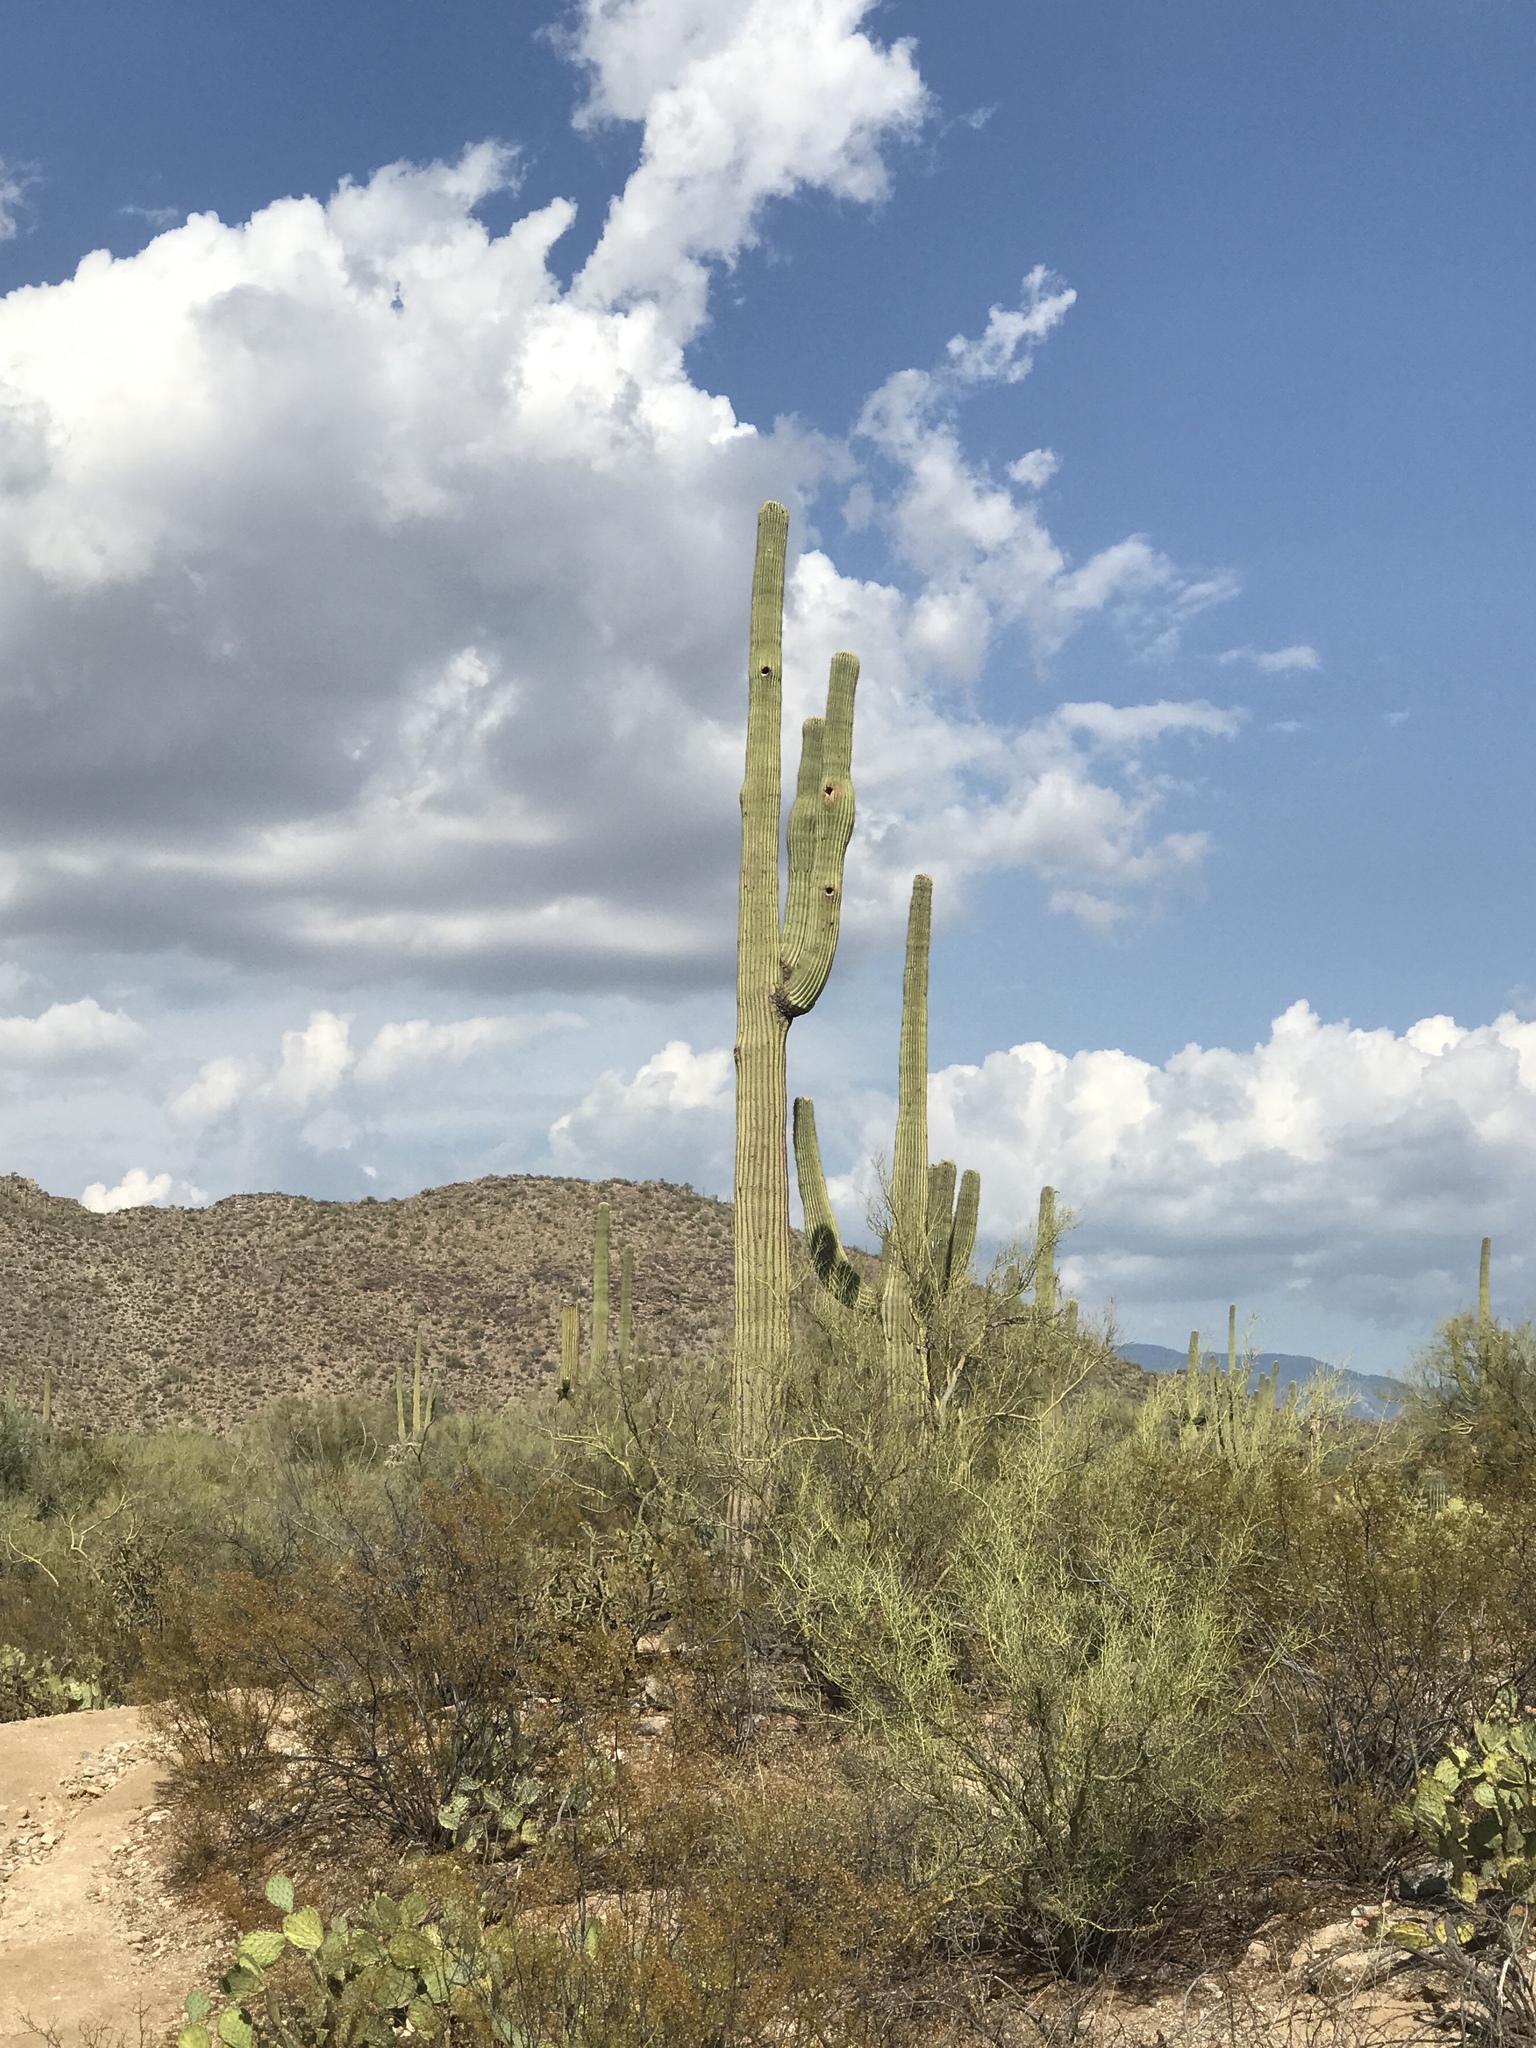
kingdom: Plantae
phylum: Tracheophyta
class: Magnoliopsida
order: Caryophyllales
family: Cactaceae
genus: Carnegiea
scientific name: Carnegiea gigantea
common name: Saguaro
